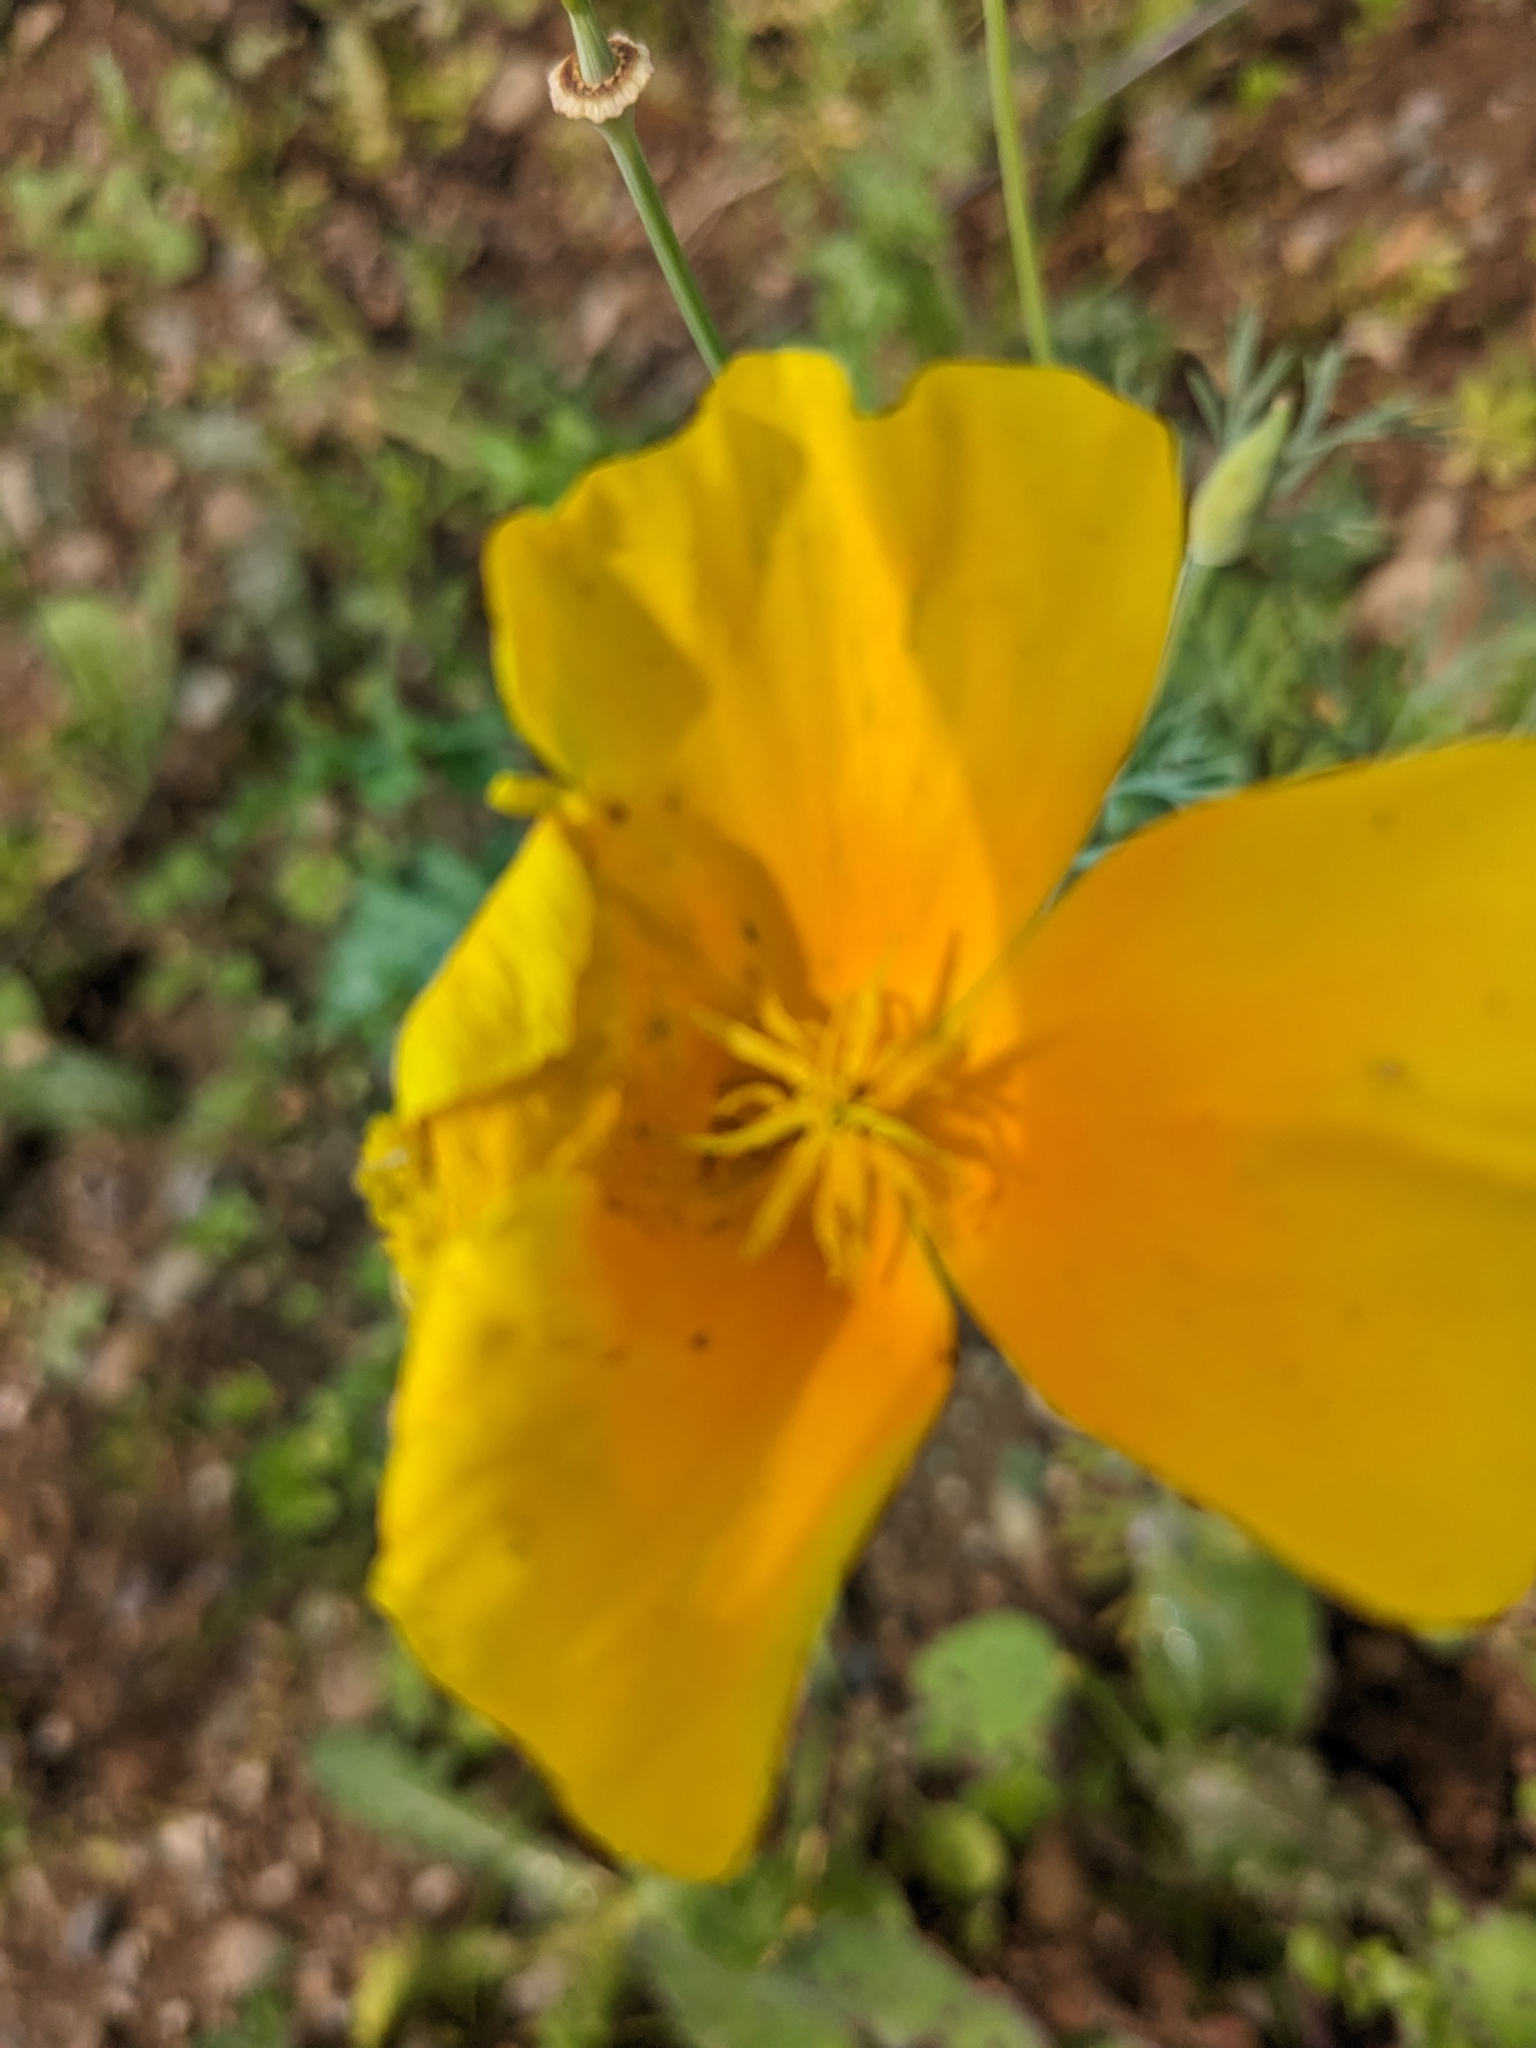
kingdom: Plantae
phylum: Tracheophyta
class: Magnoliopsida
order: Ranunculales
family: Papaveraceae
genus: Eschscholzia
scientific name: Eschscholzia californica
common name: California poppy
